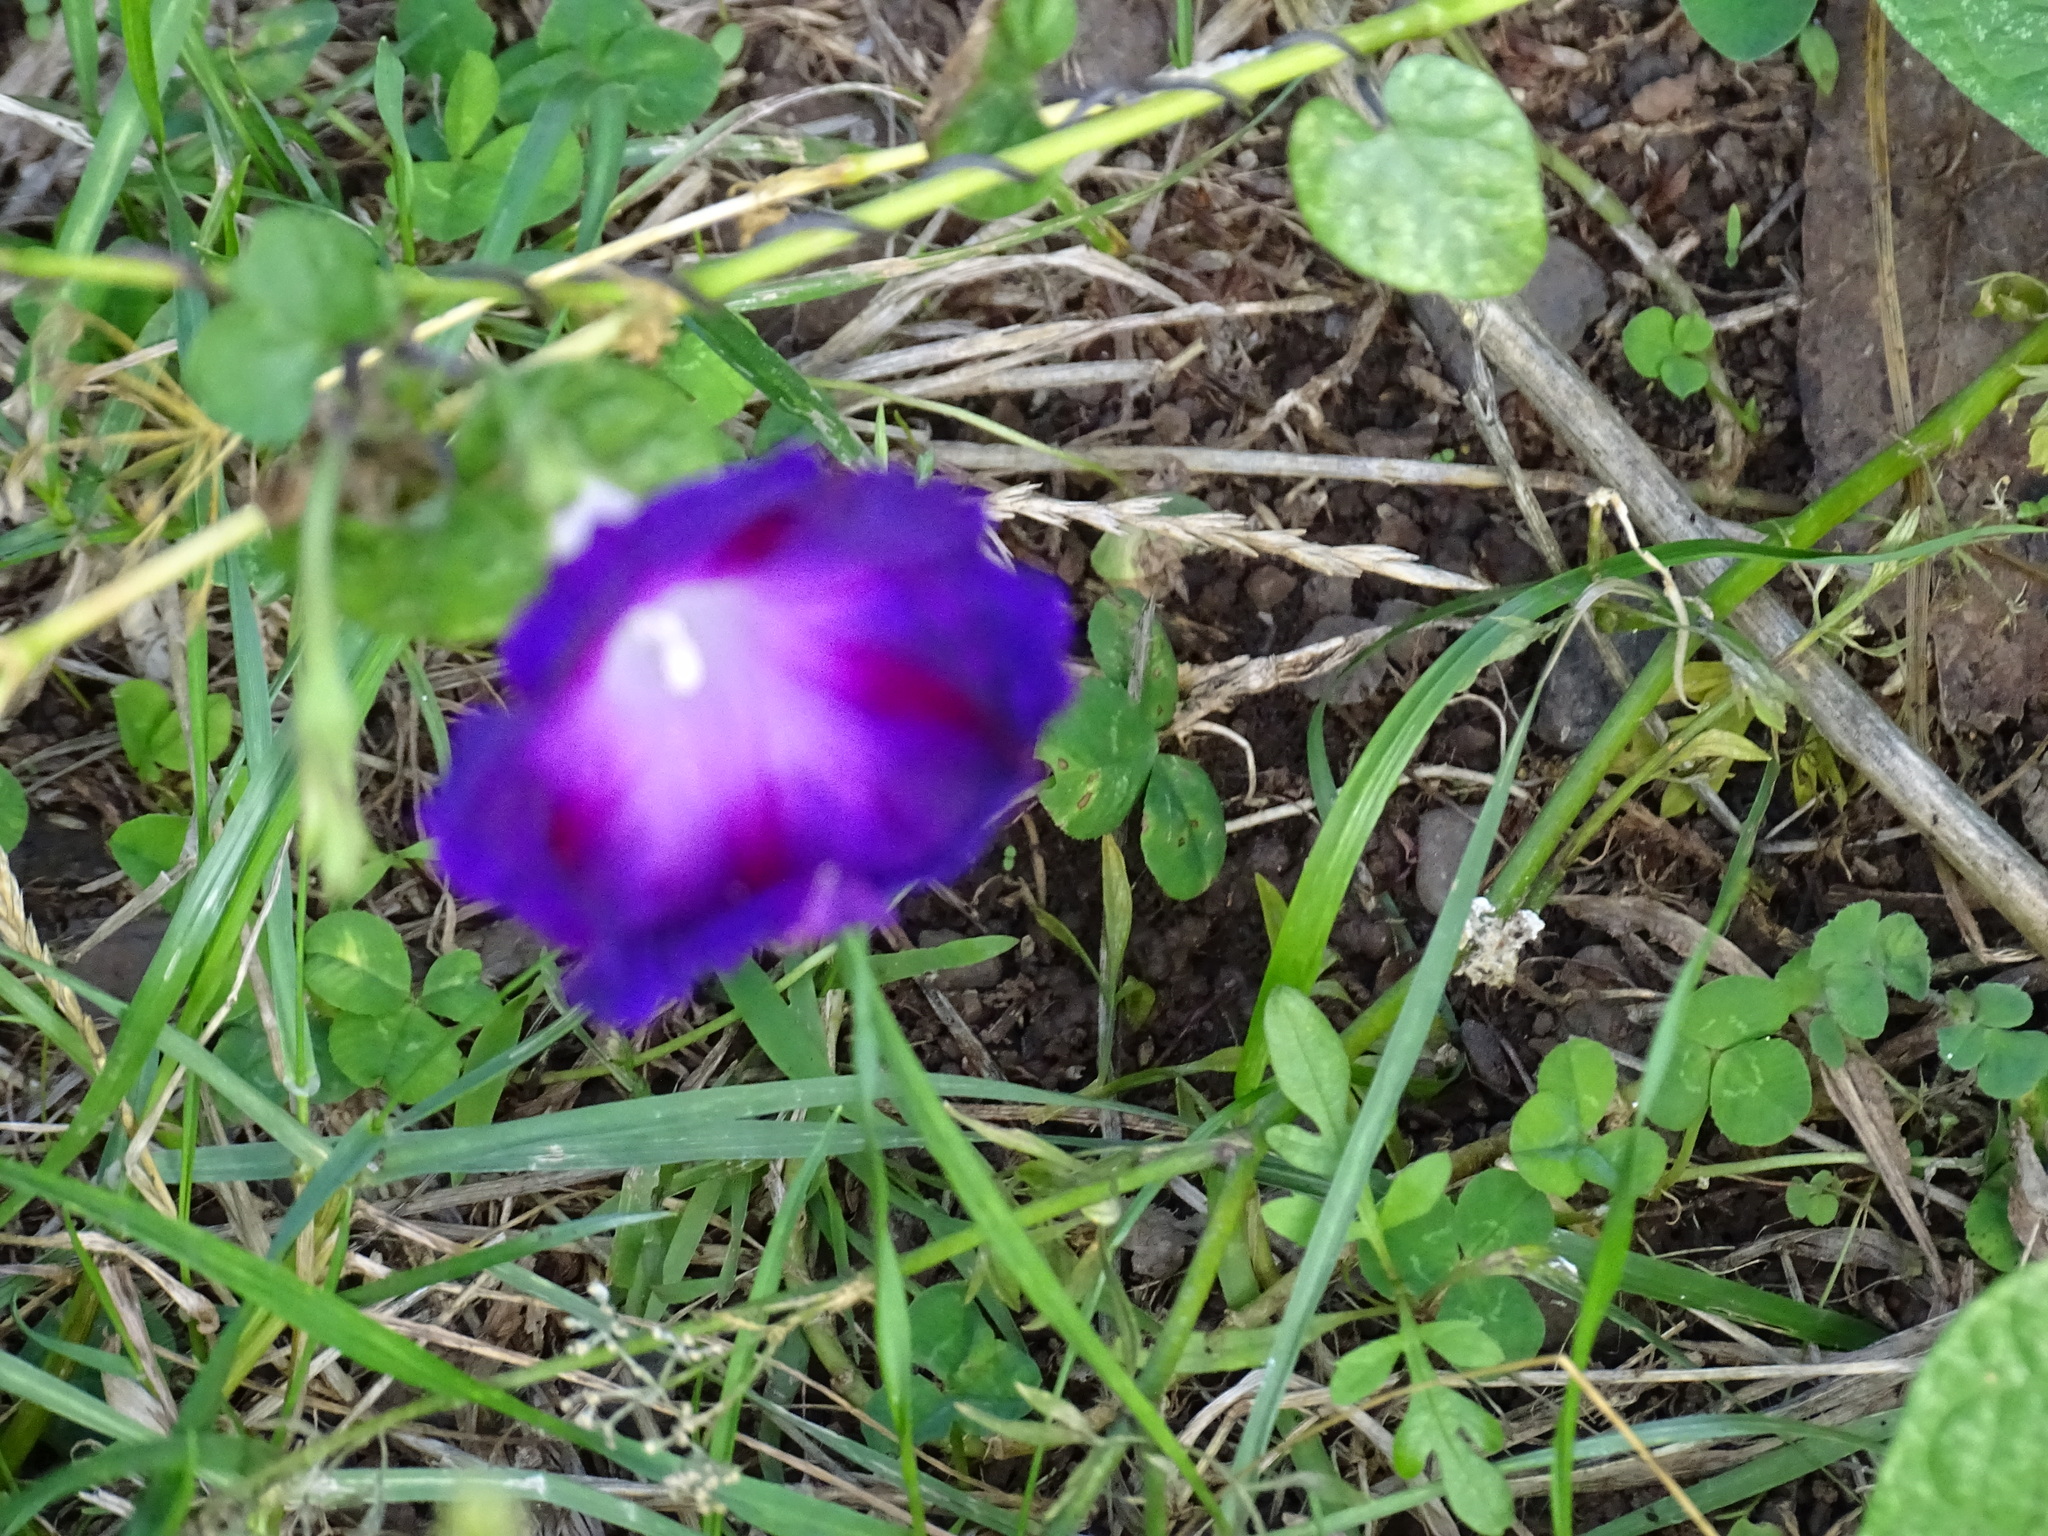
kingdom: Plantae
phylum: Tracheophyta
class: Magnoliopsida
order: Solanales
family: Convolvulaceae
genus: Ipomoea
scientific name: Ipomoea purpurea
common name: Common morning-glory
